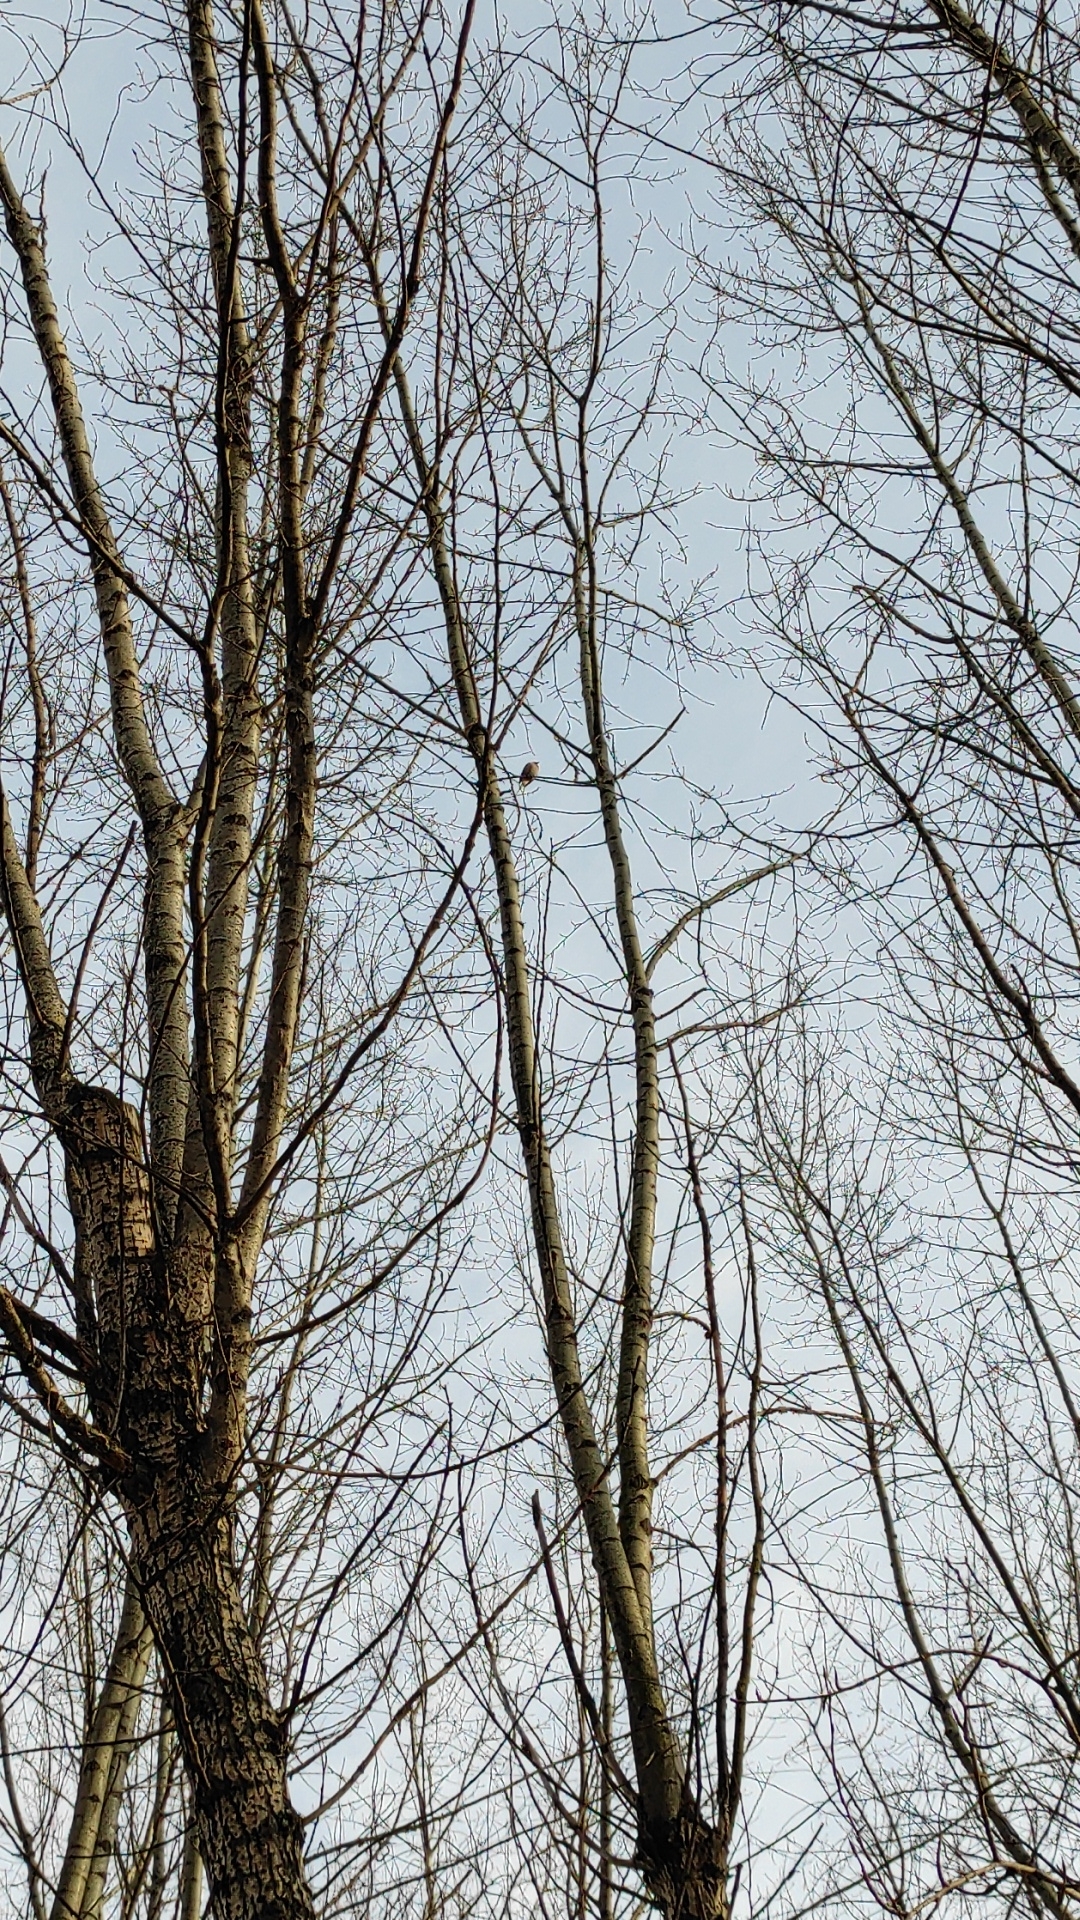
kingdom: Animalia
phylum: Chordata
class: Aves
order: Passeriformes
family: Fringillidae
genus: Fringilla
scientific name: Fringilla coelebs
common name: Common chaffinch
